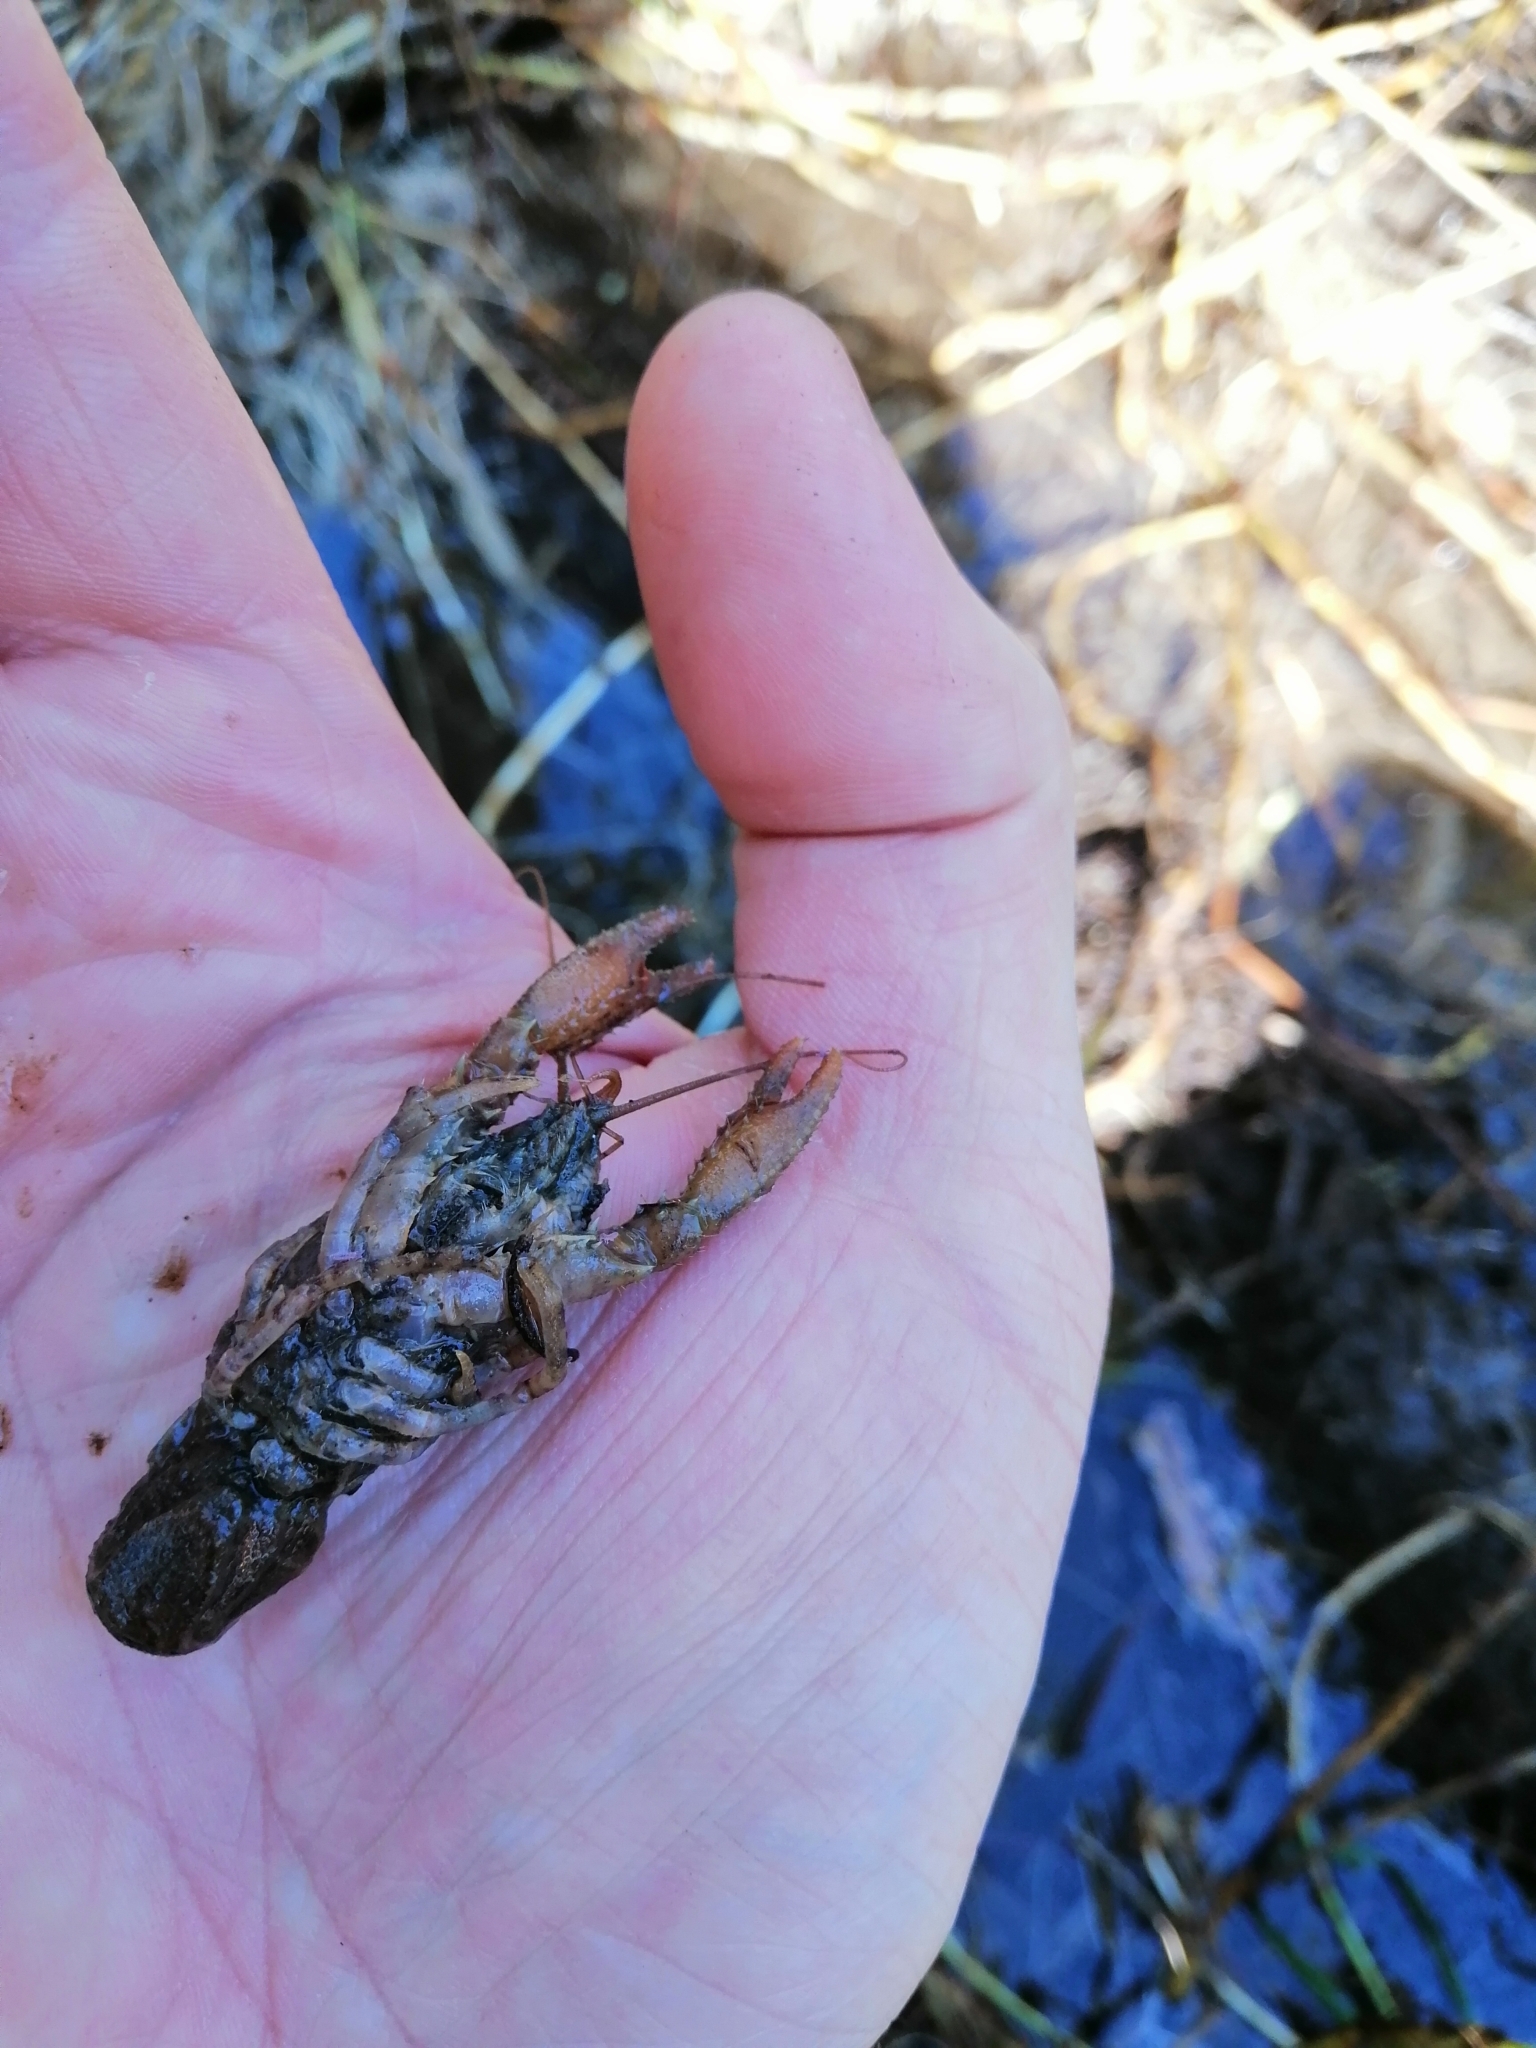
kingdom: Animalia
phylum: Arthropoda
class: Malacostraca
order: Decapoda
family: Parastacidae
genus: Paranephrops
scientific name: Paranephrops planifrons
